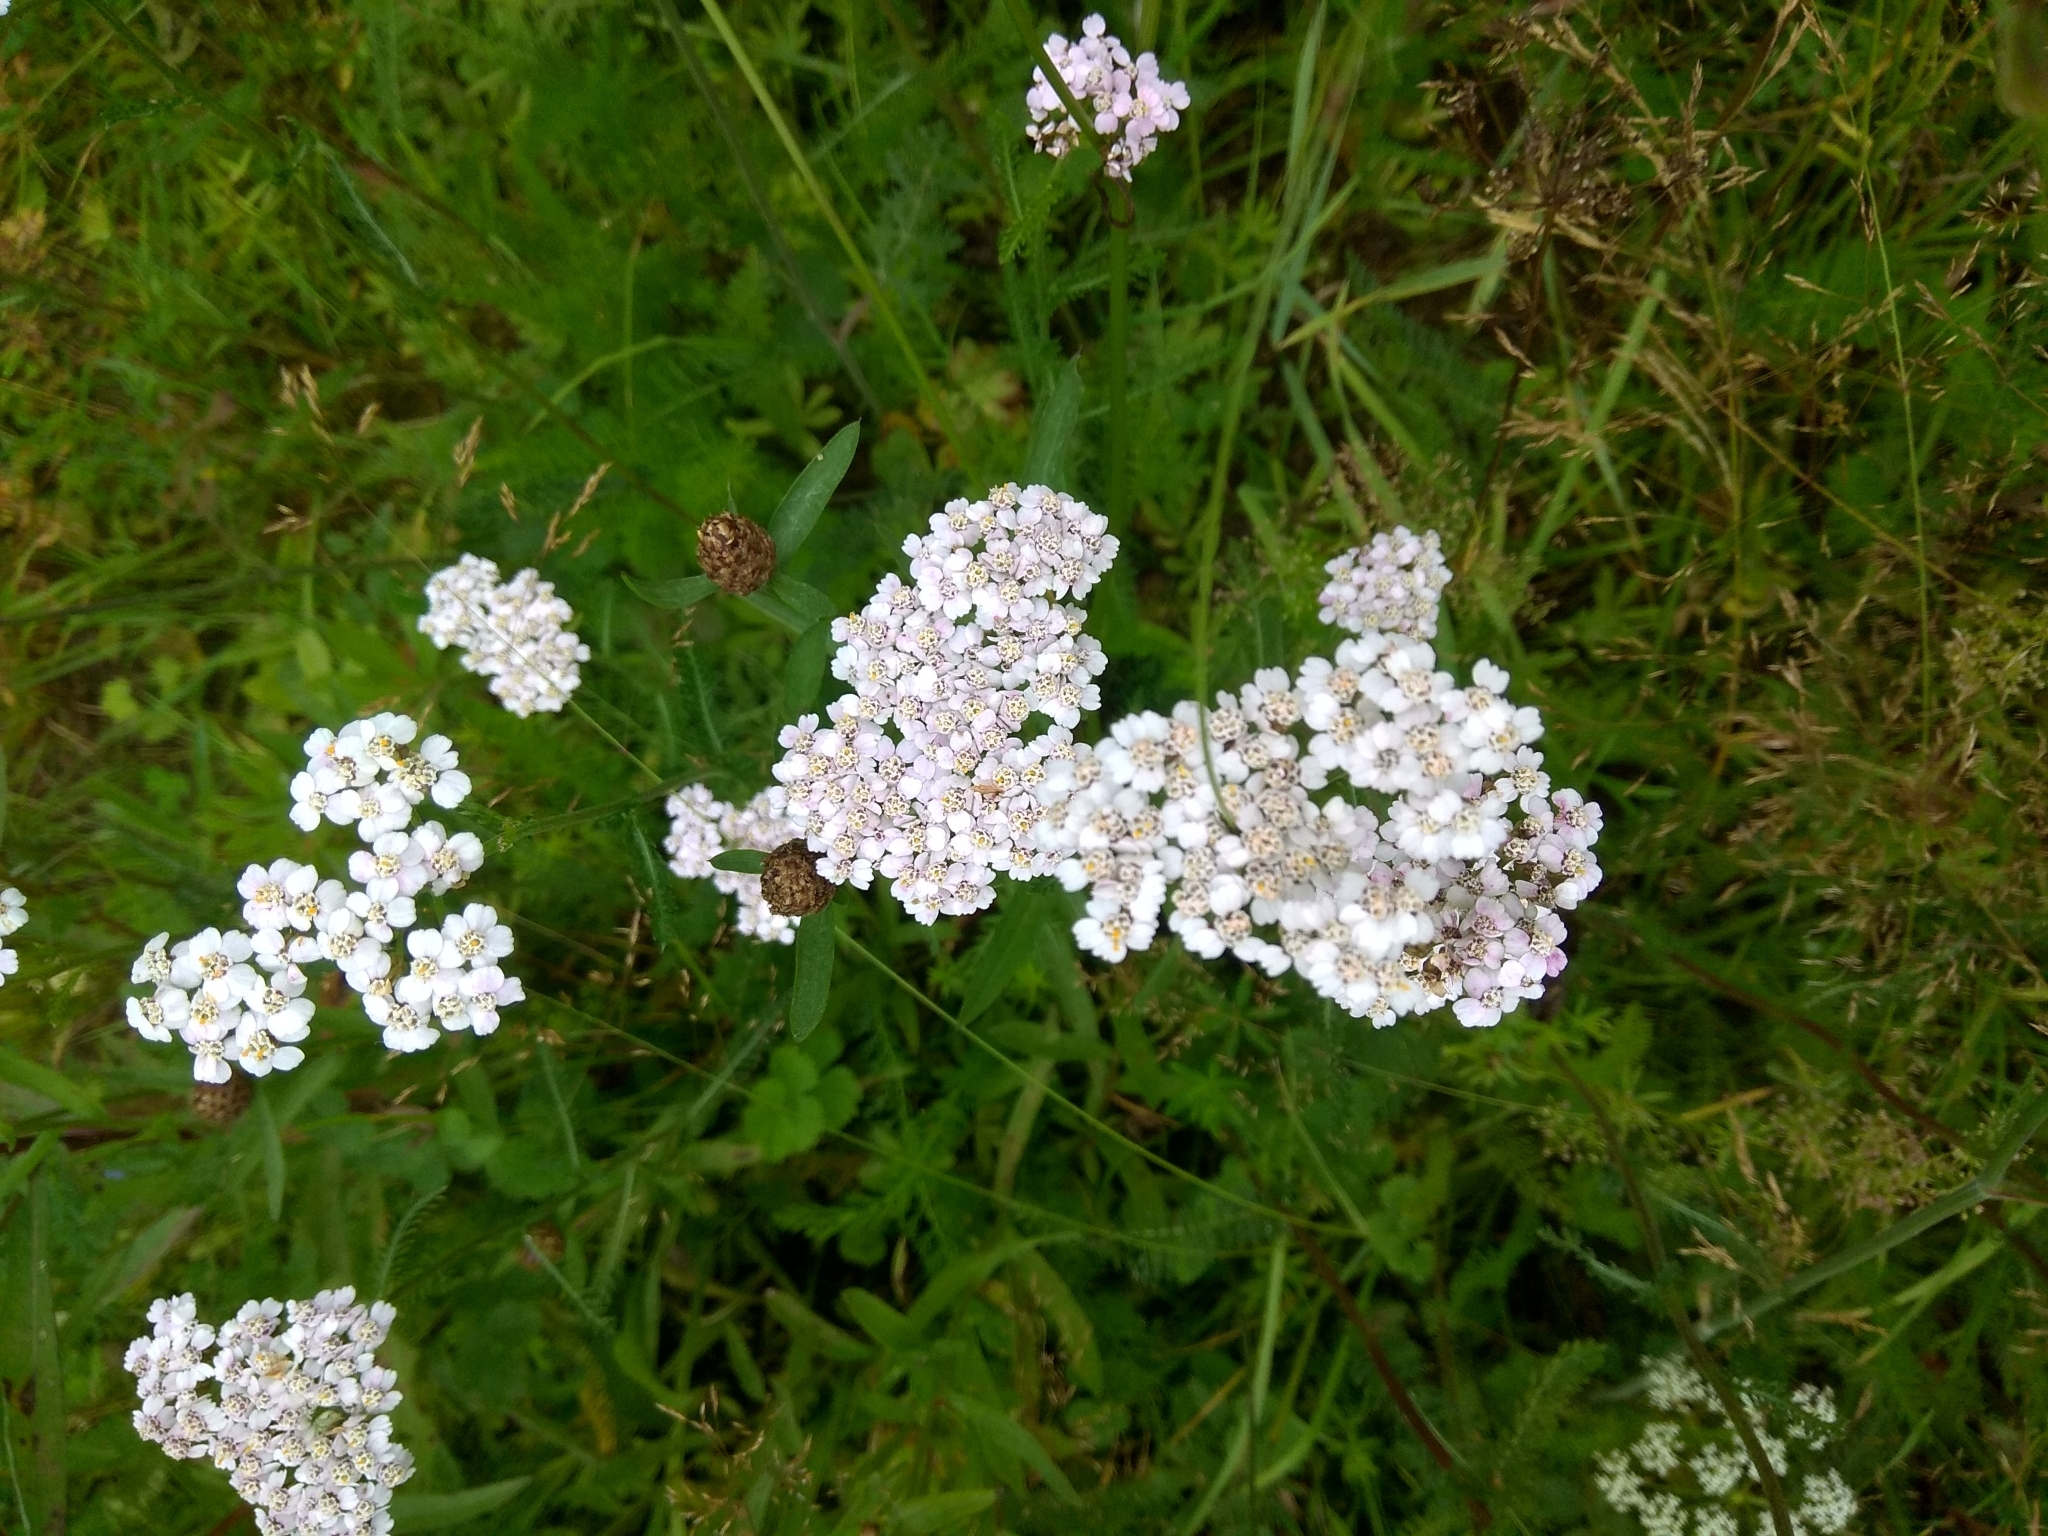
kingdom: Plantae
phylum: Tracheophyta
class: Magnoliopsida
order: Asterales
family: Asteraceae
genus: Achillea
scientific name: Achillea millefolium
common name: Yarrow
